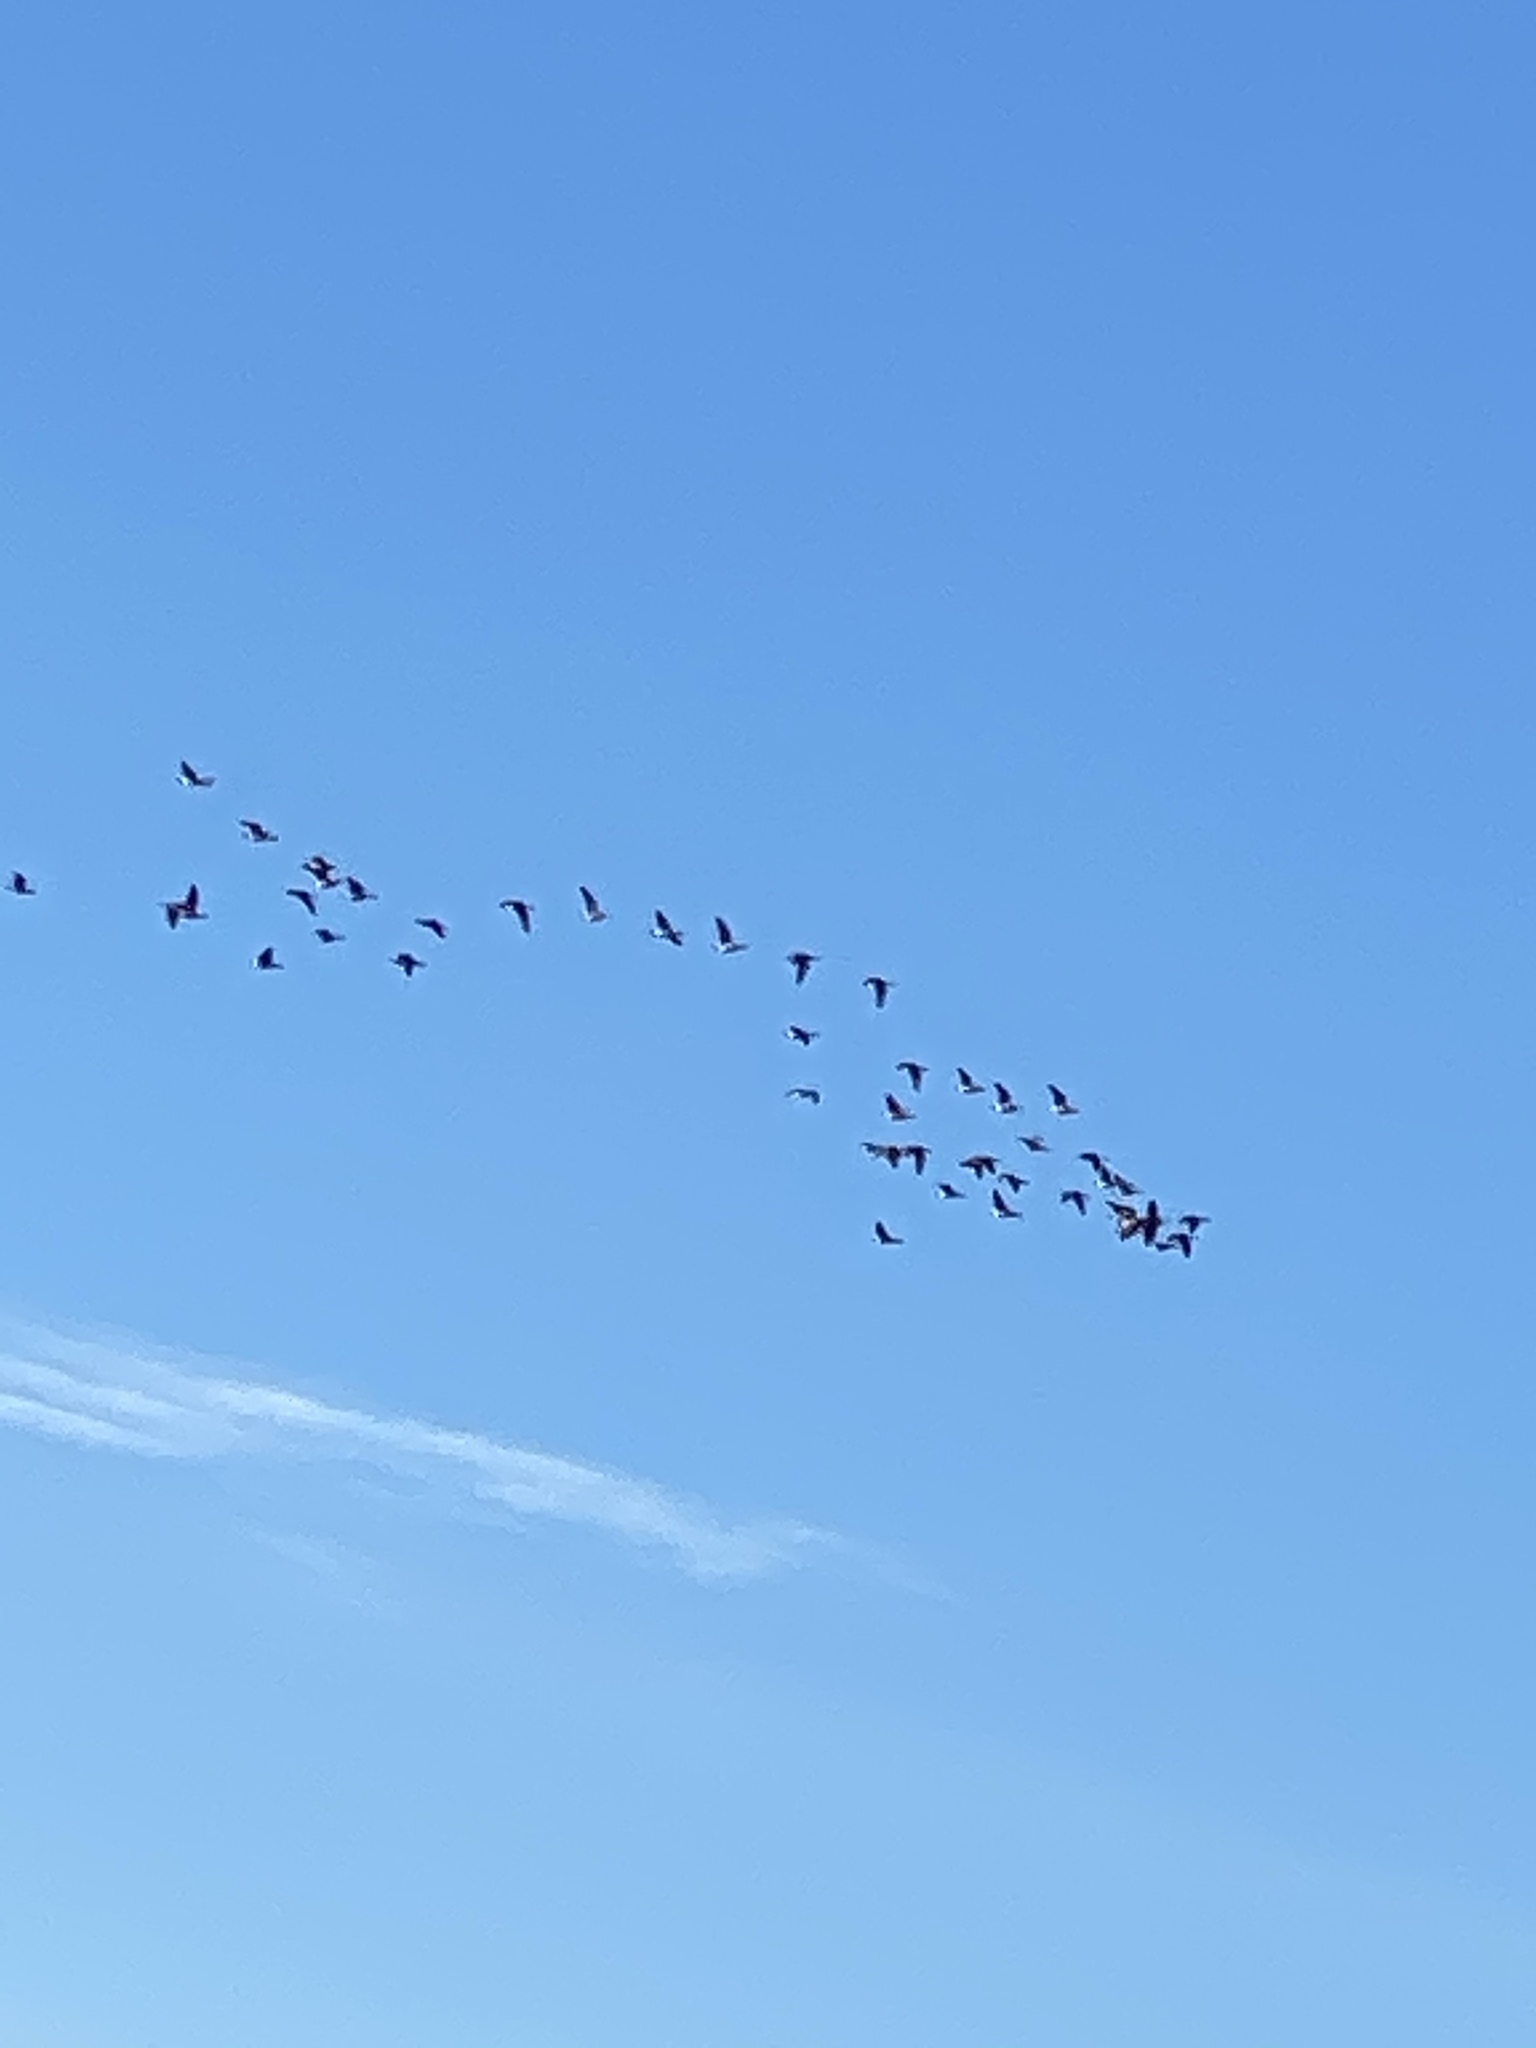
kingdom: Animalia
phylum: Chordata
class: Aves
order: Anseriformes
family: Anatidae
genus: Branta
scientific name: Branta canadensis
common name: Canada goose
